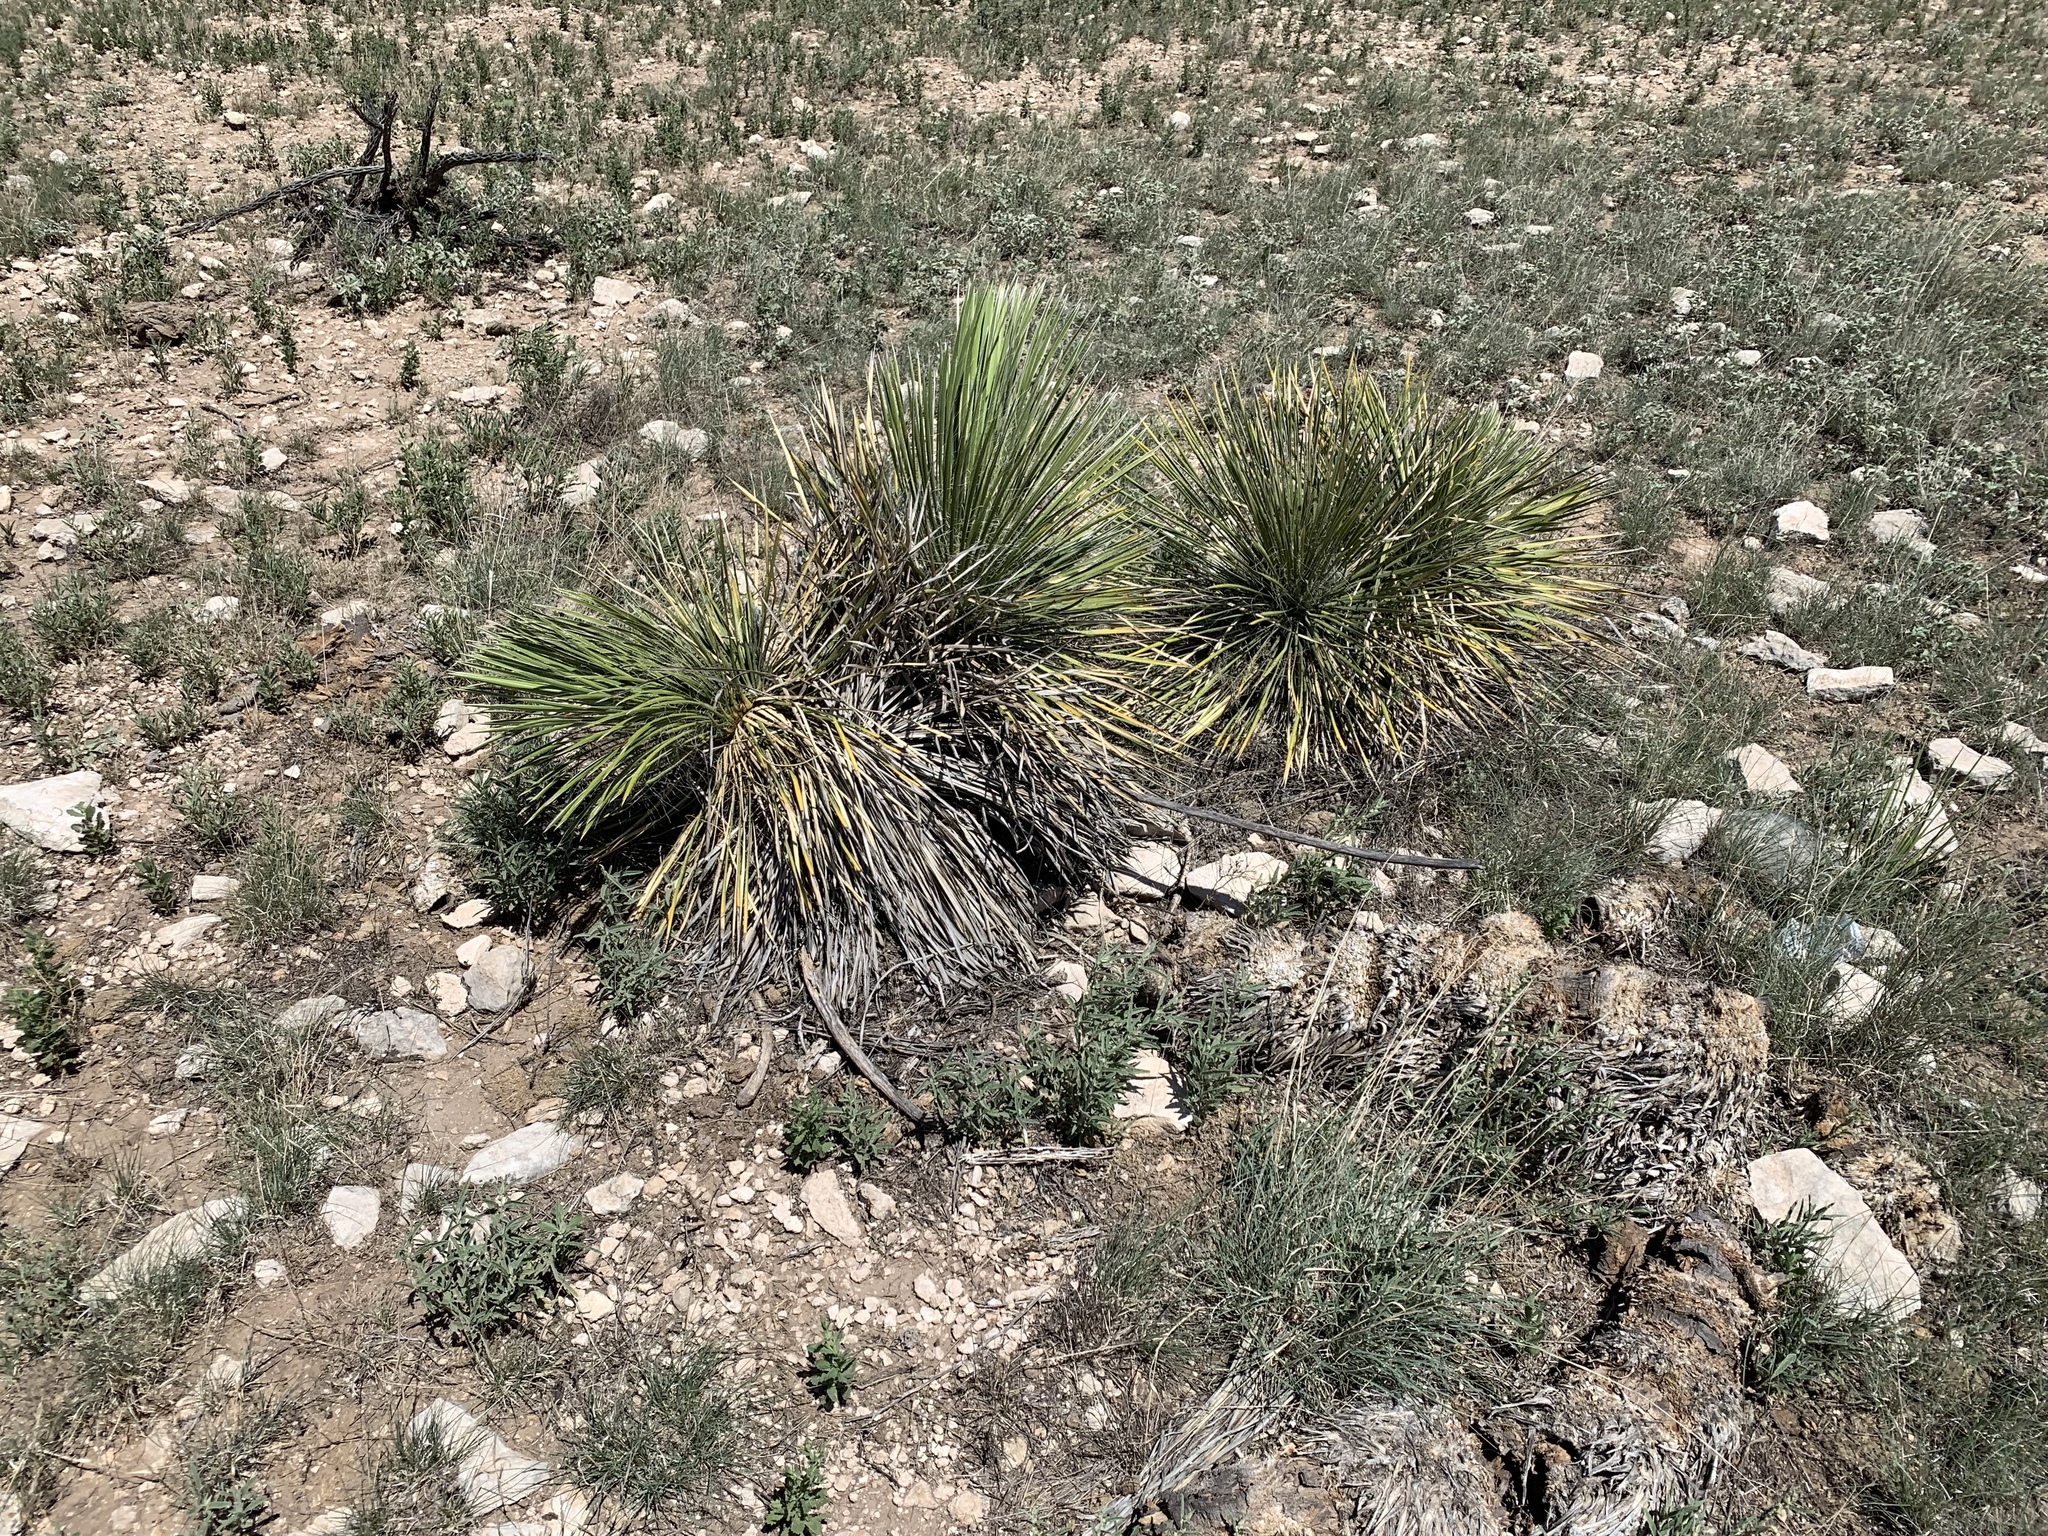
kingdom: Plantae
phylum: Tracheophyta
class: Liliopsida
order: Asparagales
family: Asparagaceae
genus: Yucca
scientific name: Yucca elata
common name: Palmella
